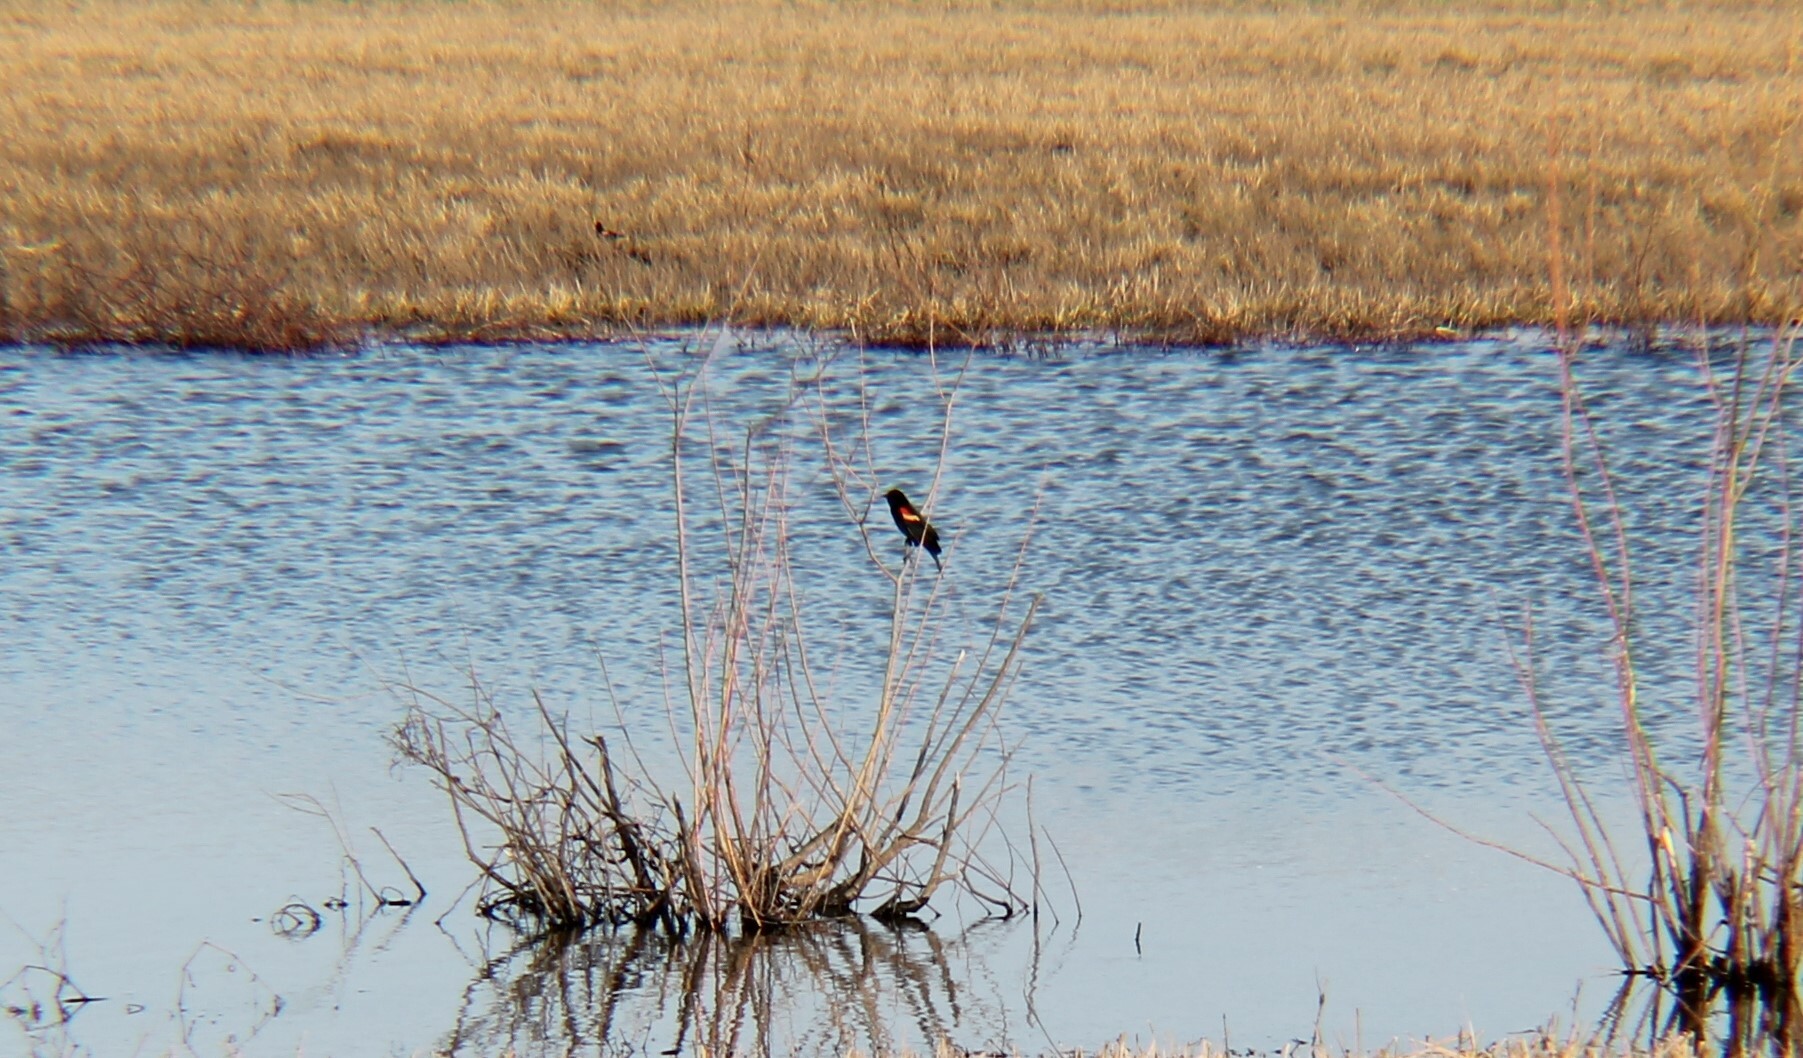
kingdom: Animalia
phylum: Chordata
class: Aves
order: Passeriformes
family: Icteridae
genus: Agelaius
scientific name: Agelaius phoeniceus
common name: Red-winged blackbird
